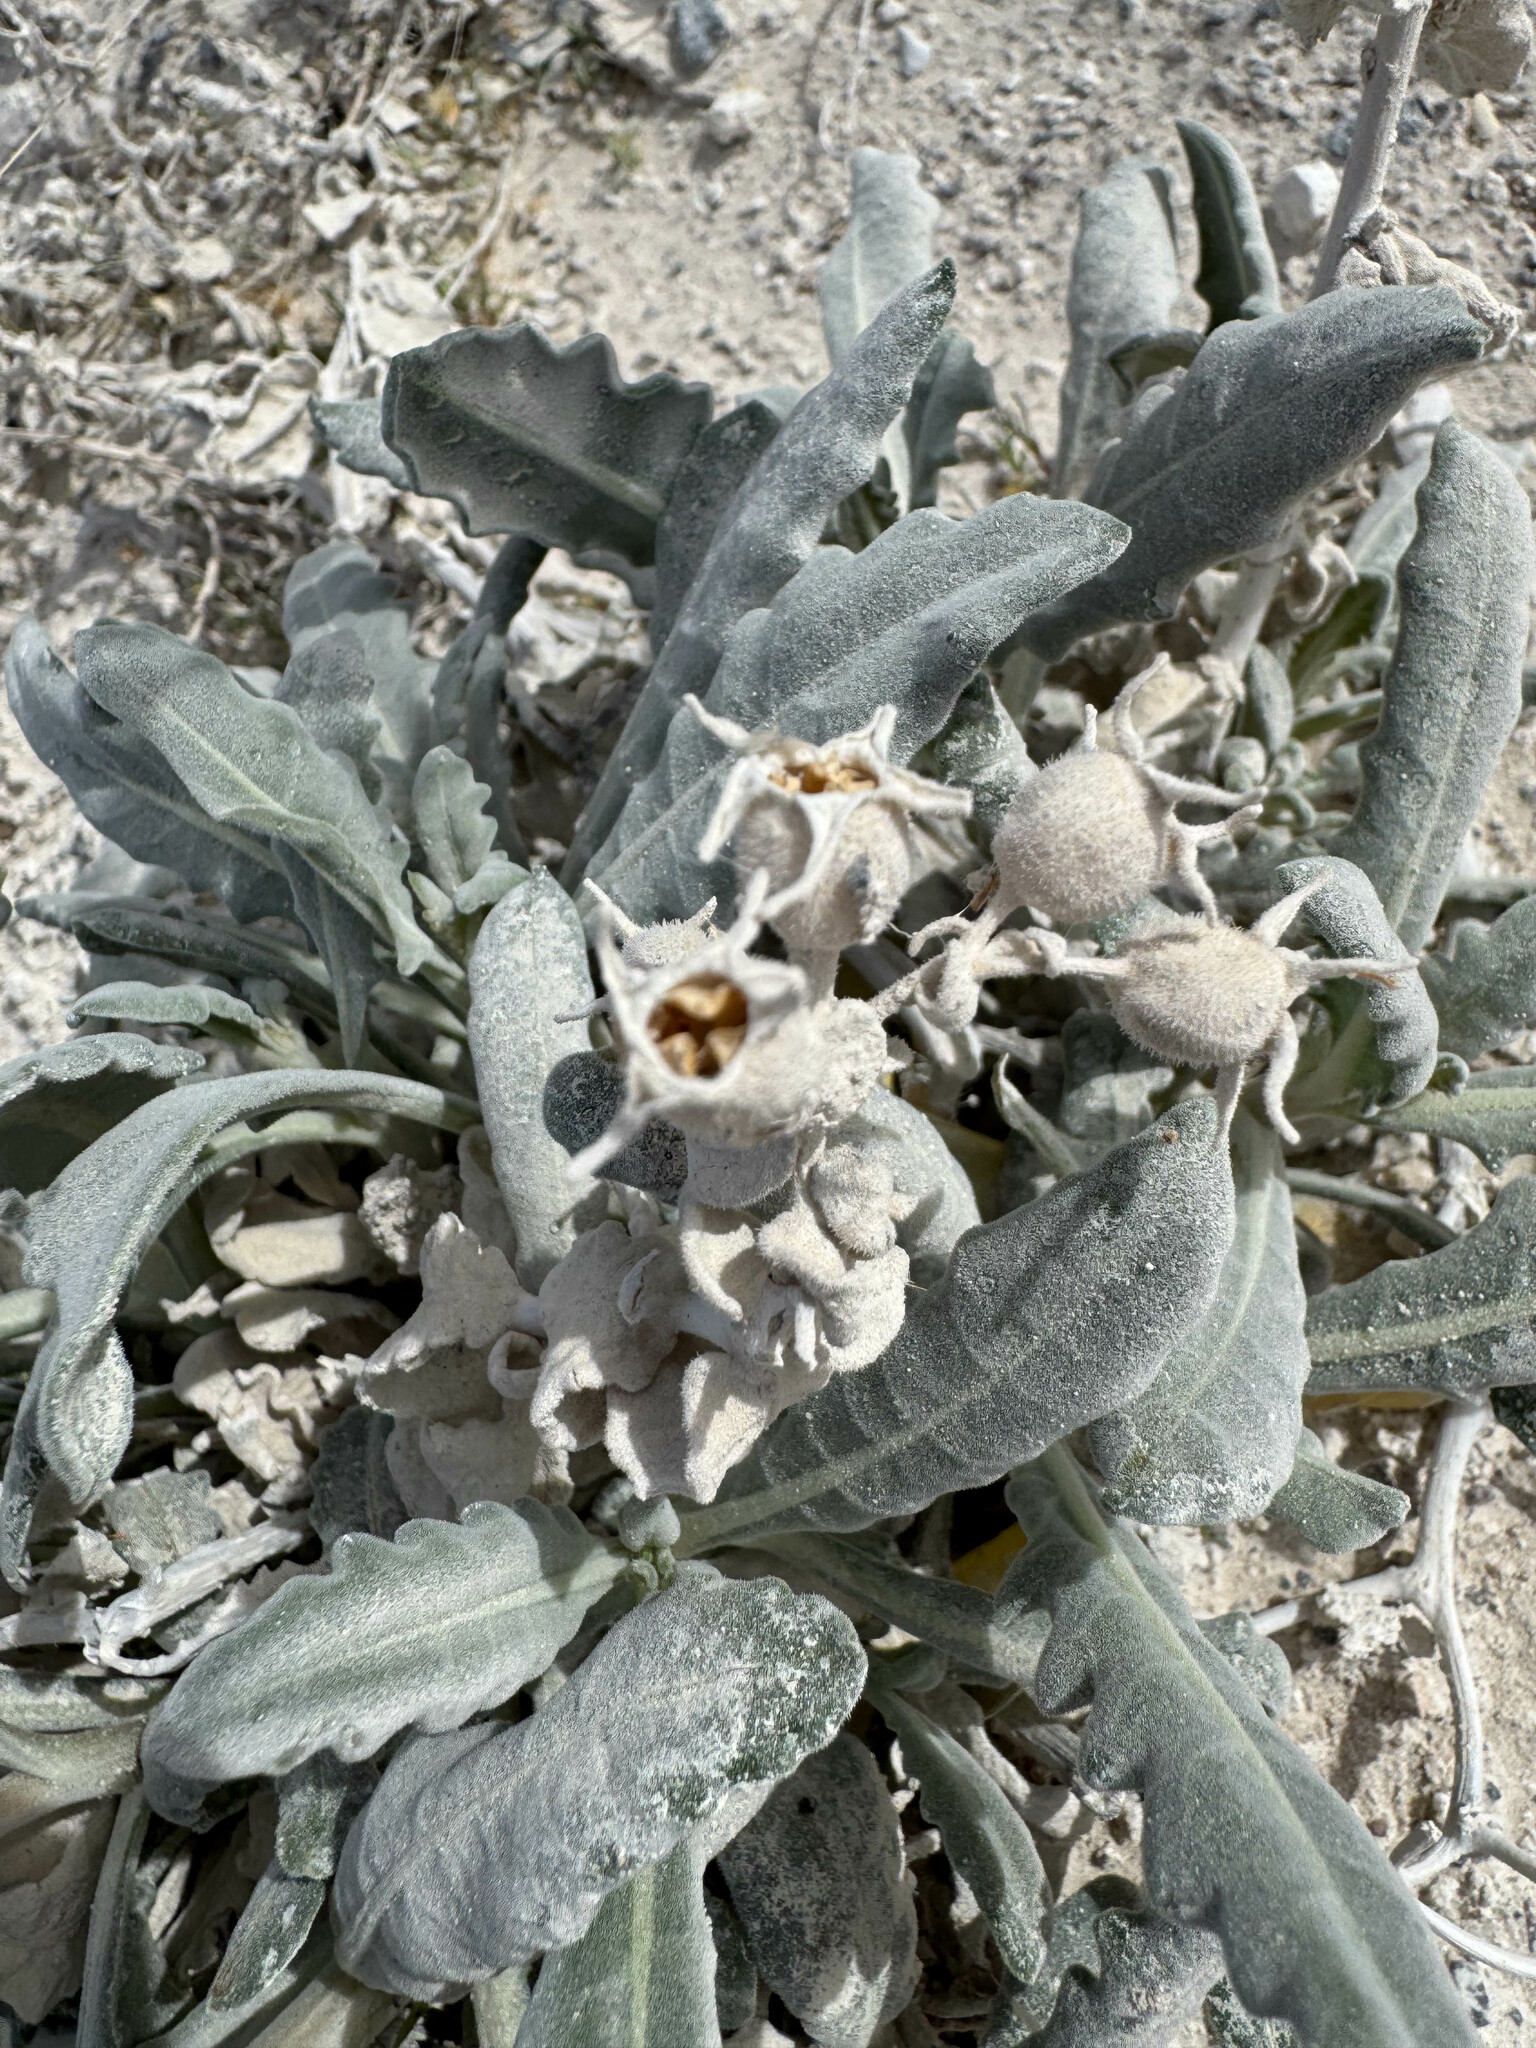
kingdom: Plantae
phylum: Tracheophyta
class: Magnoliopsida
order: Cornales
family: Loasaceae
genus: Mentzelia
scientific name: Mentzelia leucophylla
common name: Ash meadows blazingstar
